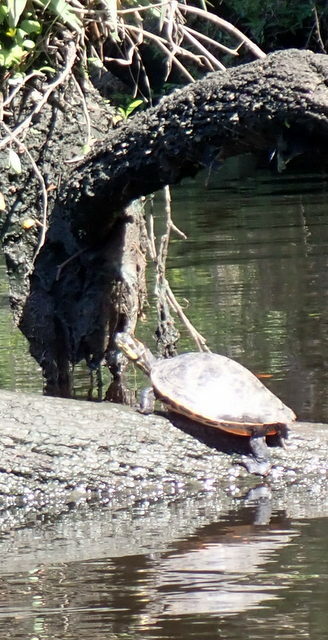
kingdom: Animalia
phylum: Chordata
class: Testudines
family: Emydidae
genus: Pseudemys
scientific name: Pseudemys concinna
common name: Eastern river cooter
